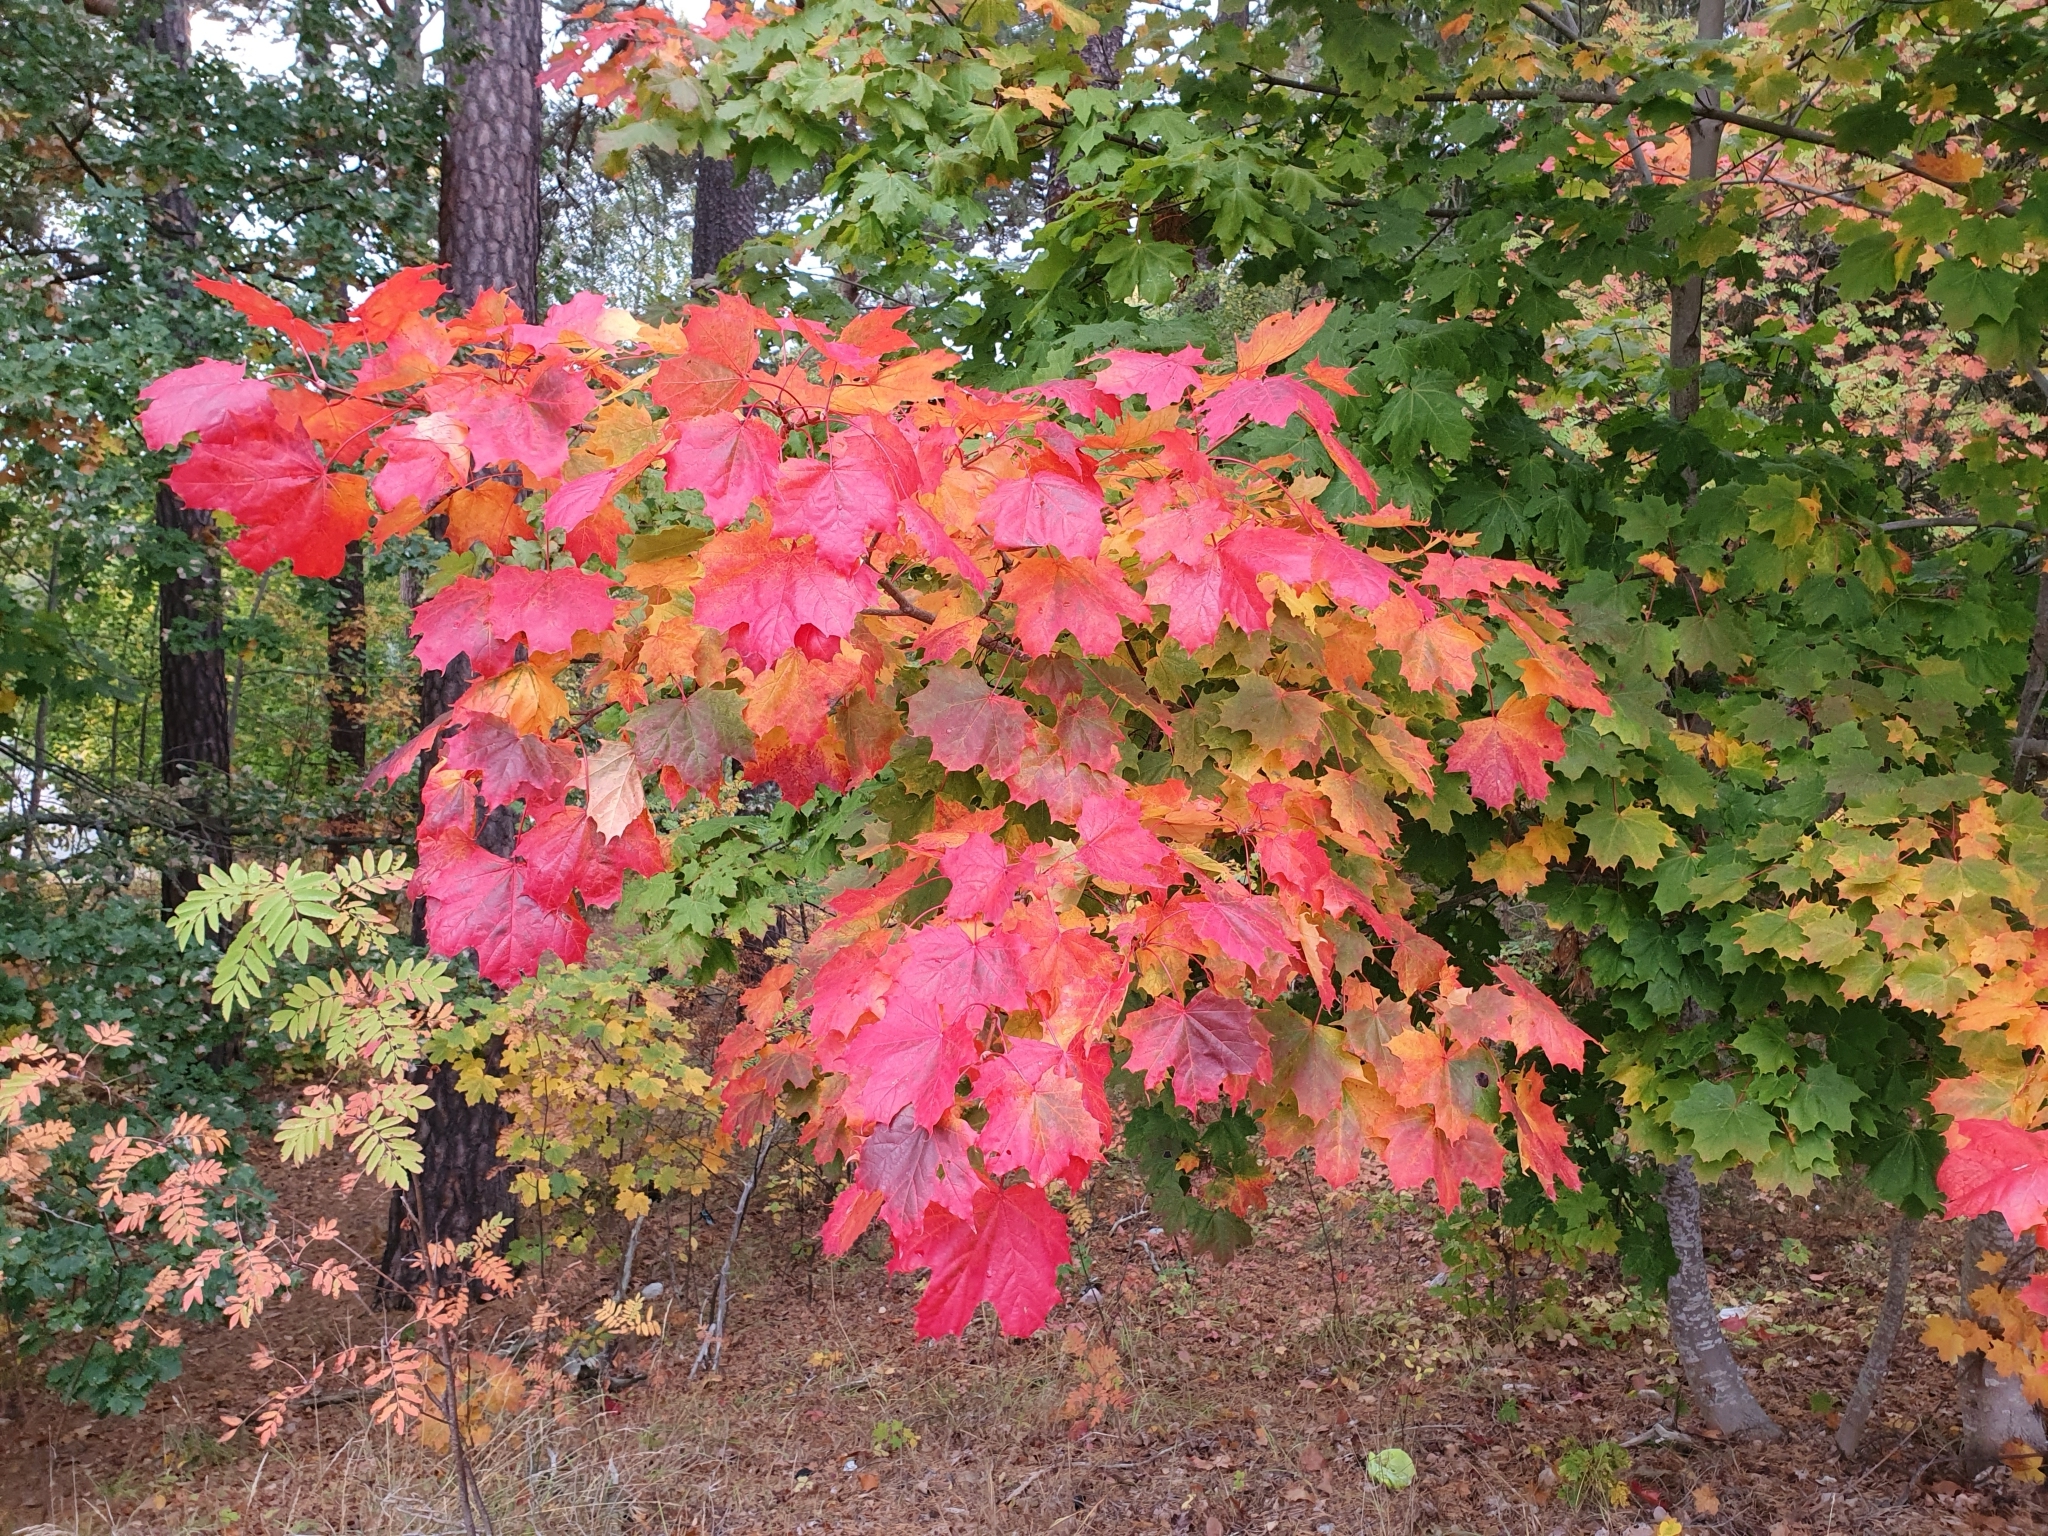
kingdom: Plantae
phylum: Tracheophyta
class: Magnoliopsida
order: Sapindales
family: Sapindaceae
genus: Acer
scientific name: Acer platanoides
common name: Norway maple
